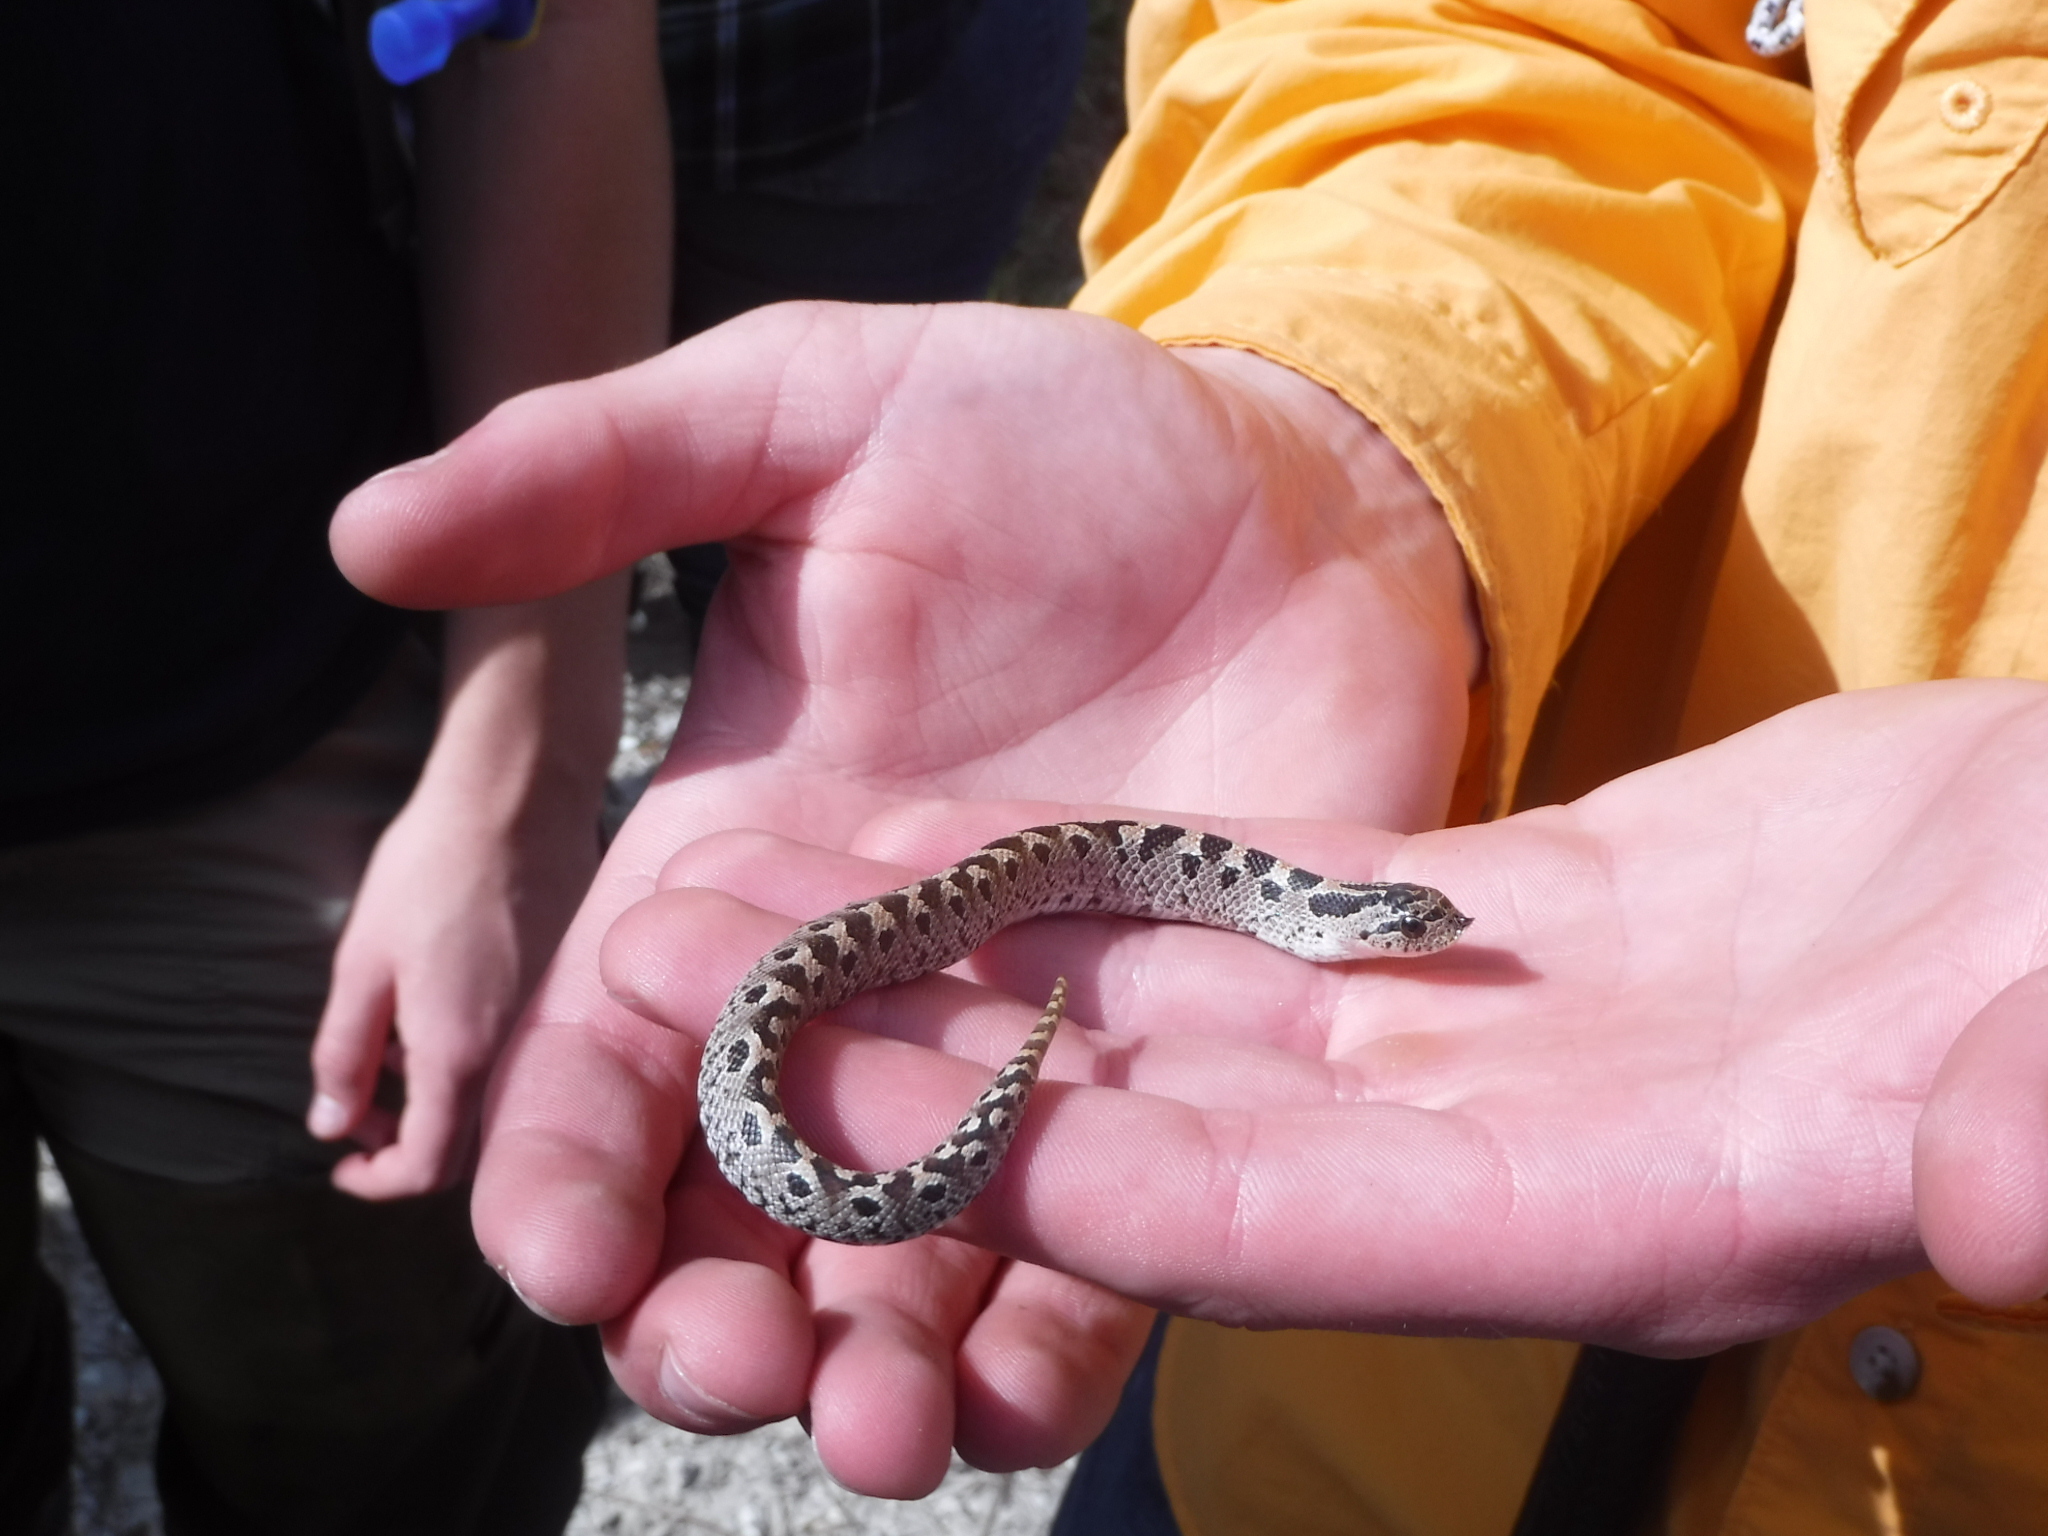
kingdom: Animalia
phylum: Chordata
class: Squamata
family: Colubridae
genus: Heterodon
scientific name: Heterodon simus
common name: Southern hognose snake
